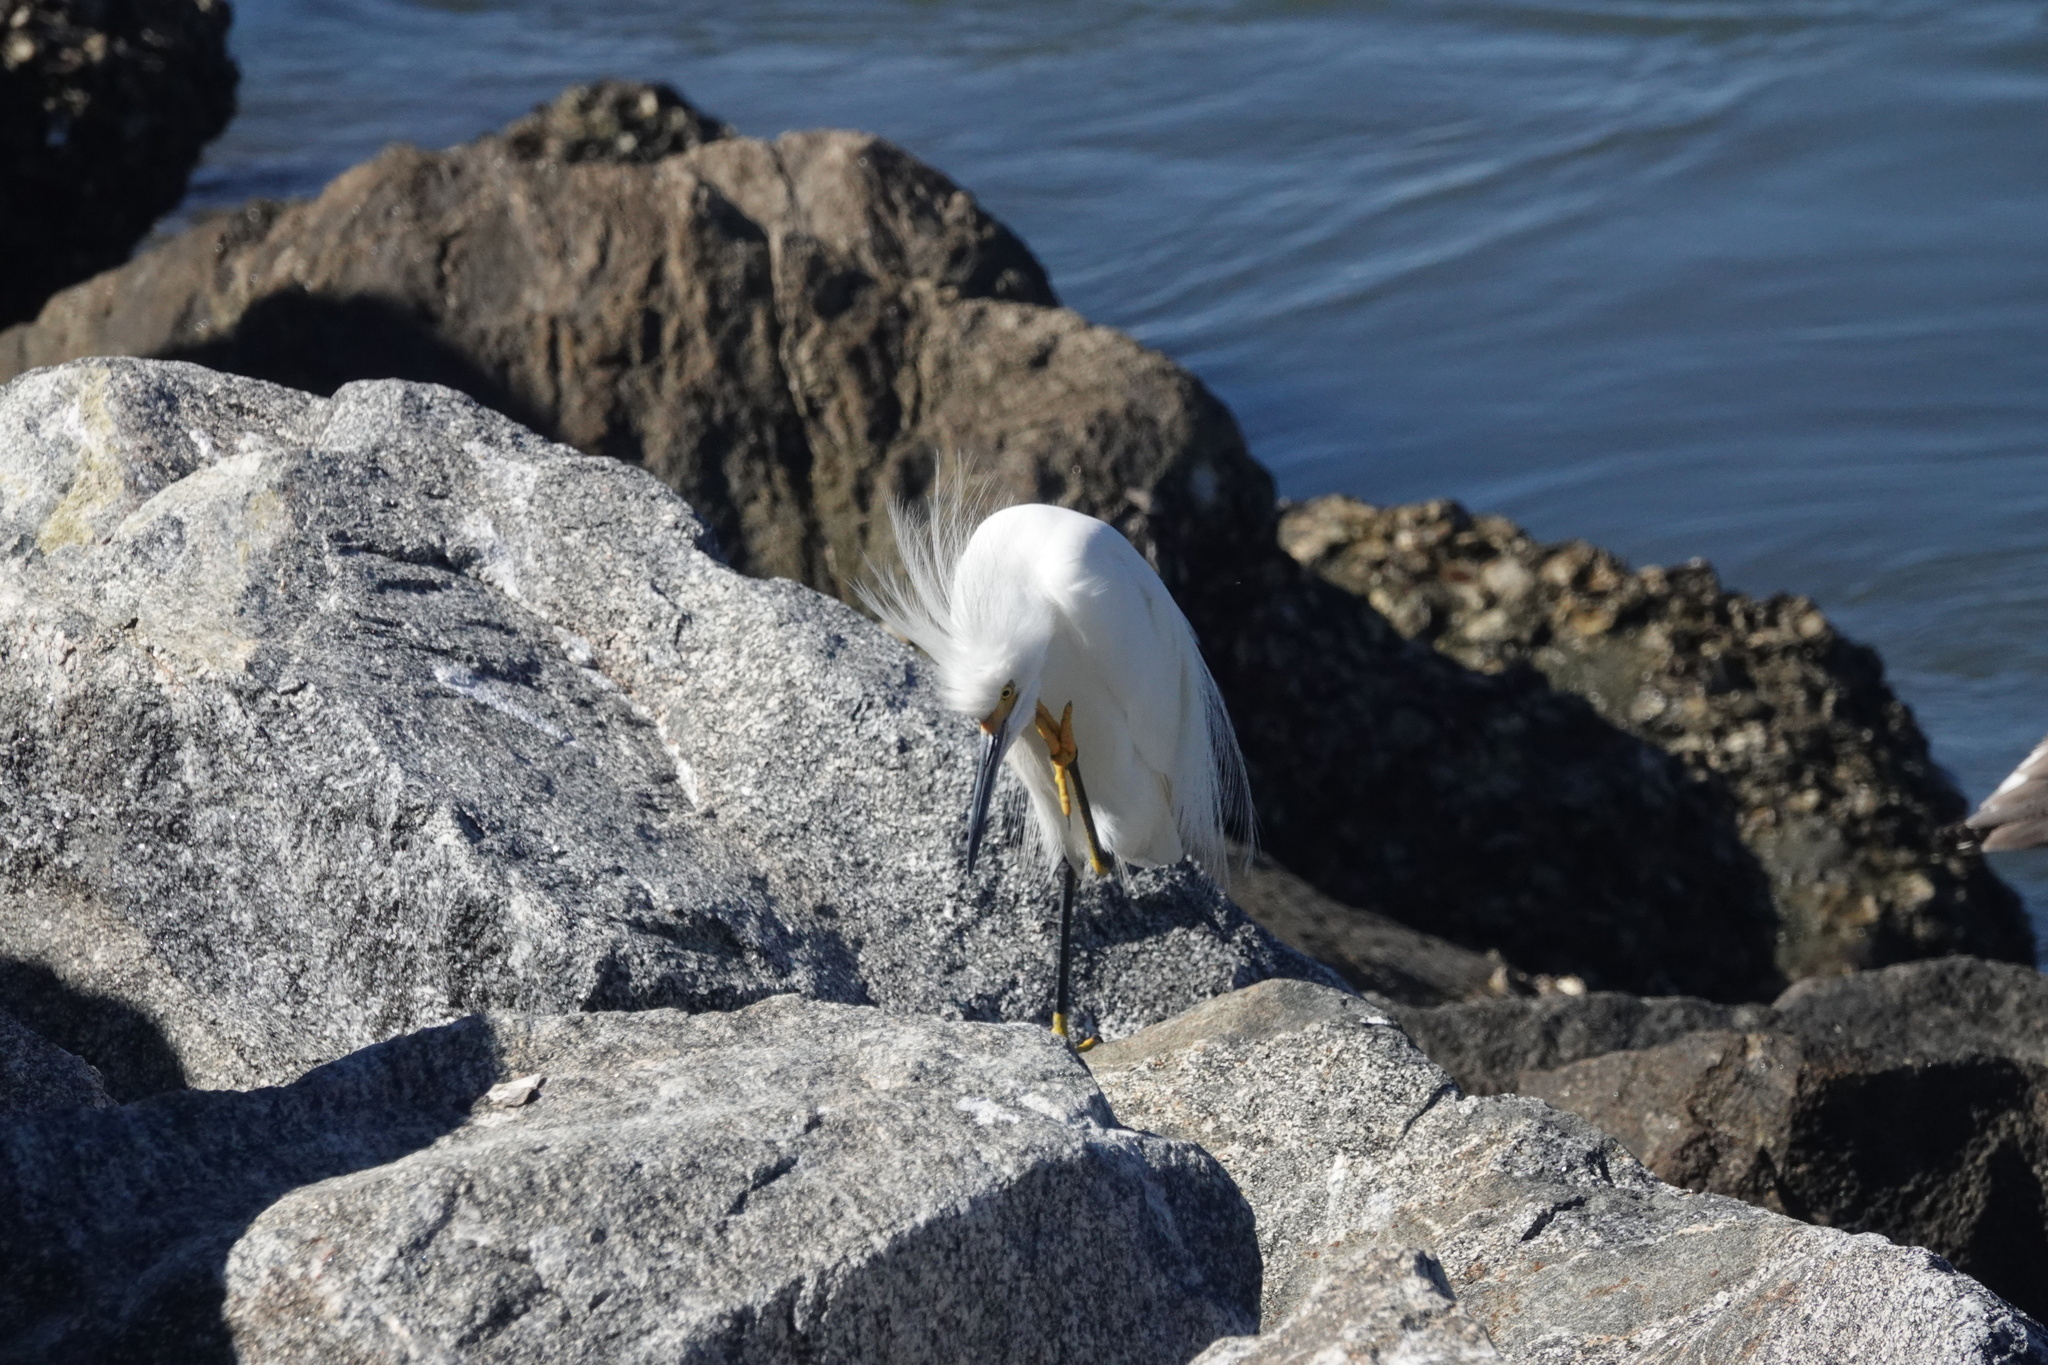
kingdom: Animalia
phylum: Chordata
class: Aves
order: Pelecaniformes
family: Ardeidae
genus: Egretta
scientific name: Egretta thula
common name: Snowy egret
